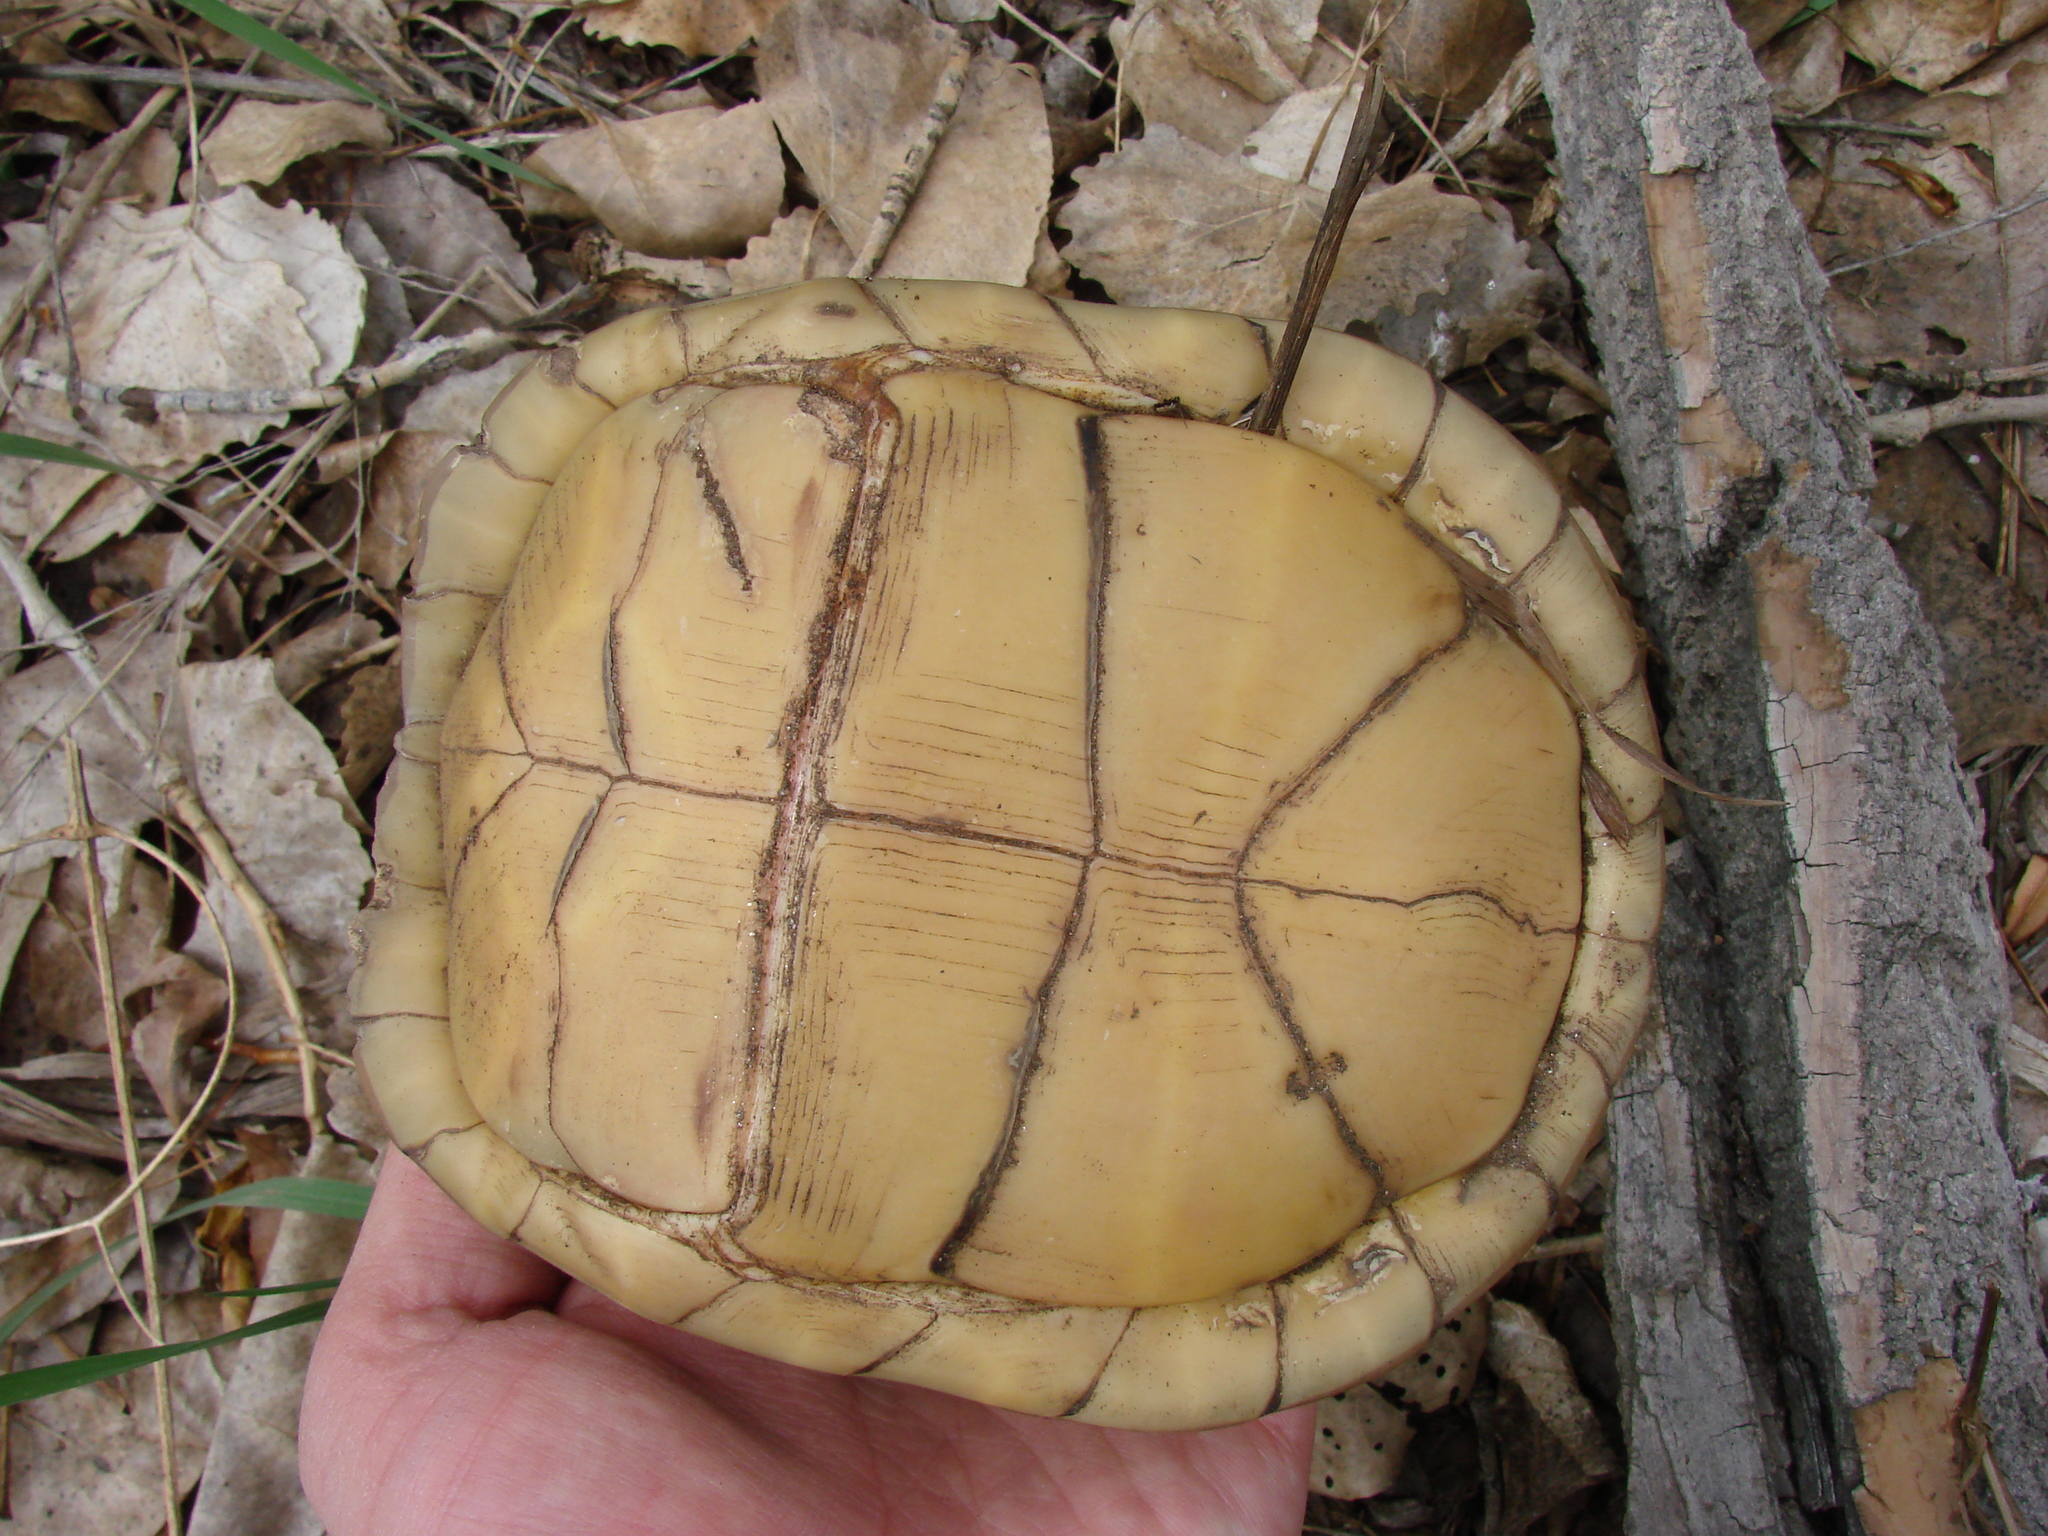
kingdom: Animalia
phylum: Chordata
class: Testudines
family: Emydidae
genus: Terrapene
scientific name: Terrapene carolina
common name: Common box turtle
